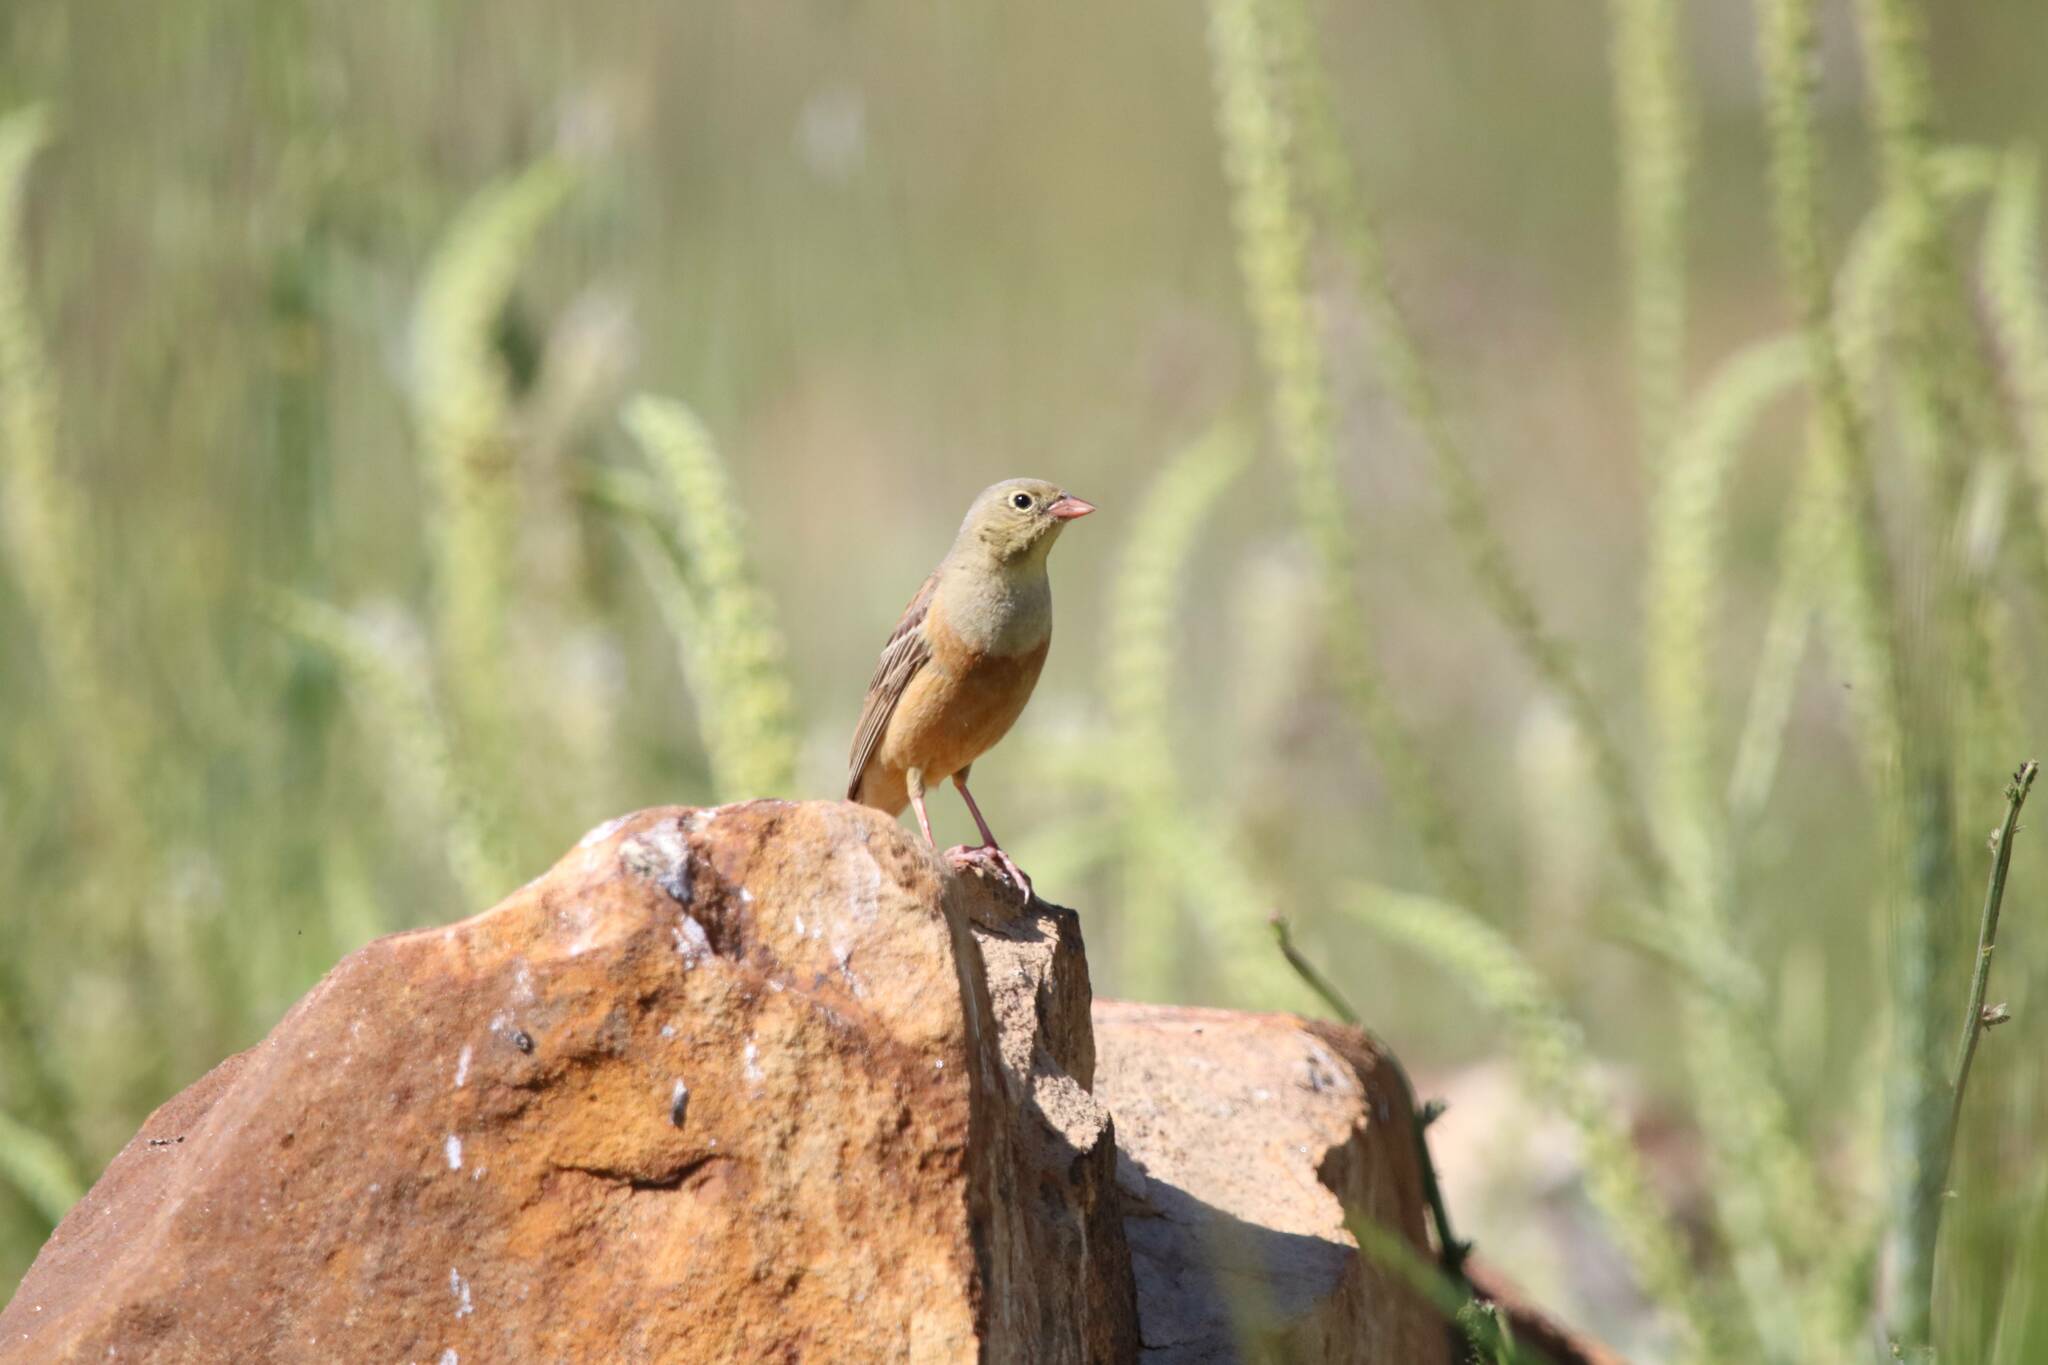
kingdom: Animalia
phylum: Chordata
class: Aves
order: Passeriformes
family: Emberizidae
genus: Emberiza
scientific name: Emberiza hortulana
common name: Ortolan bunting
